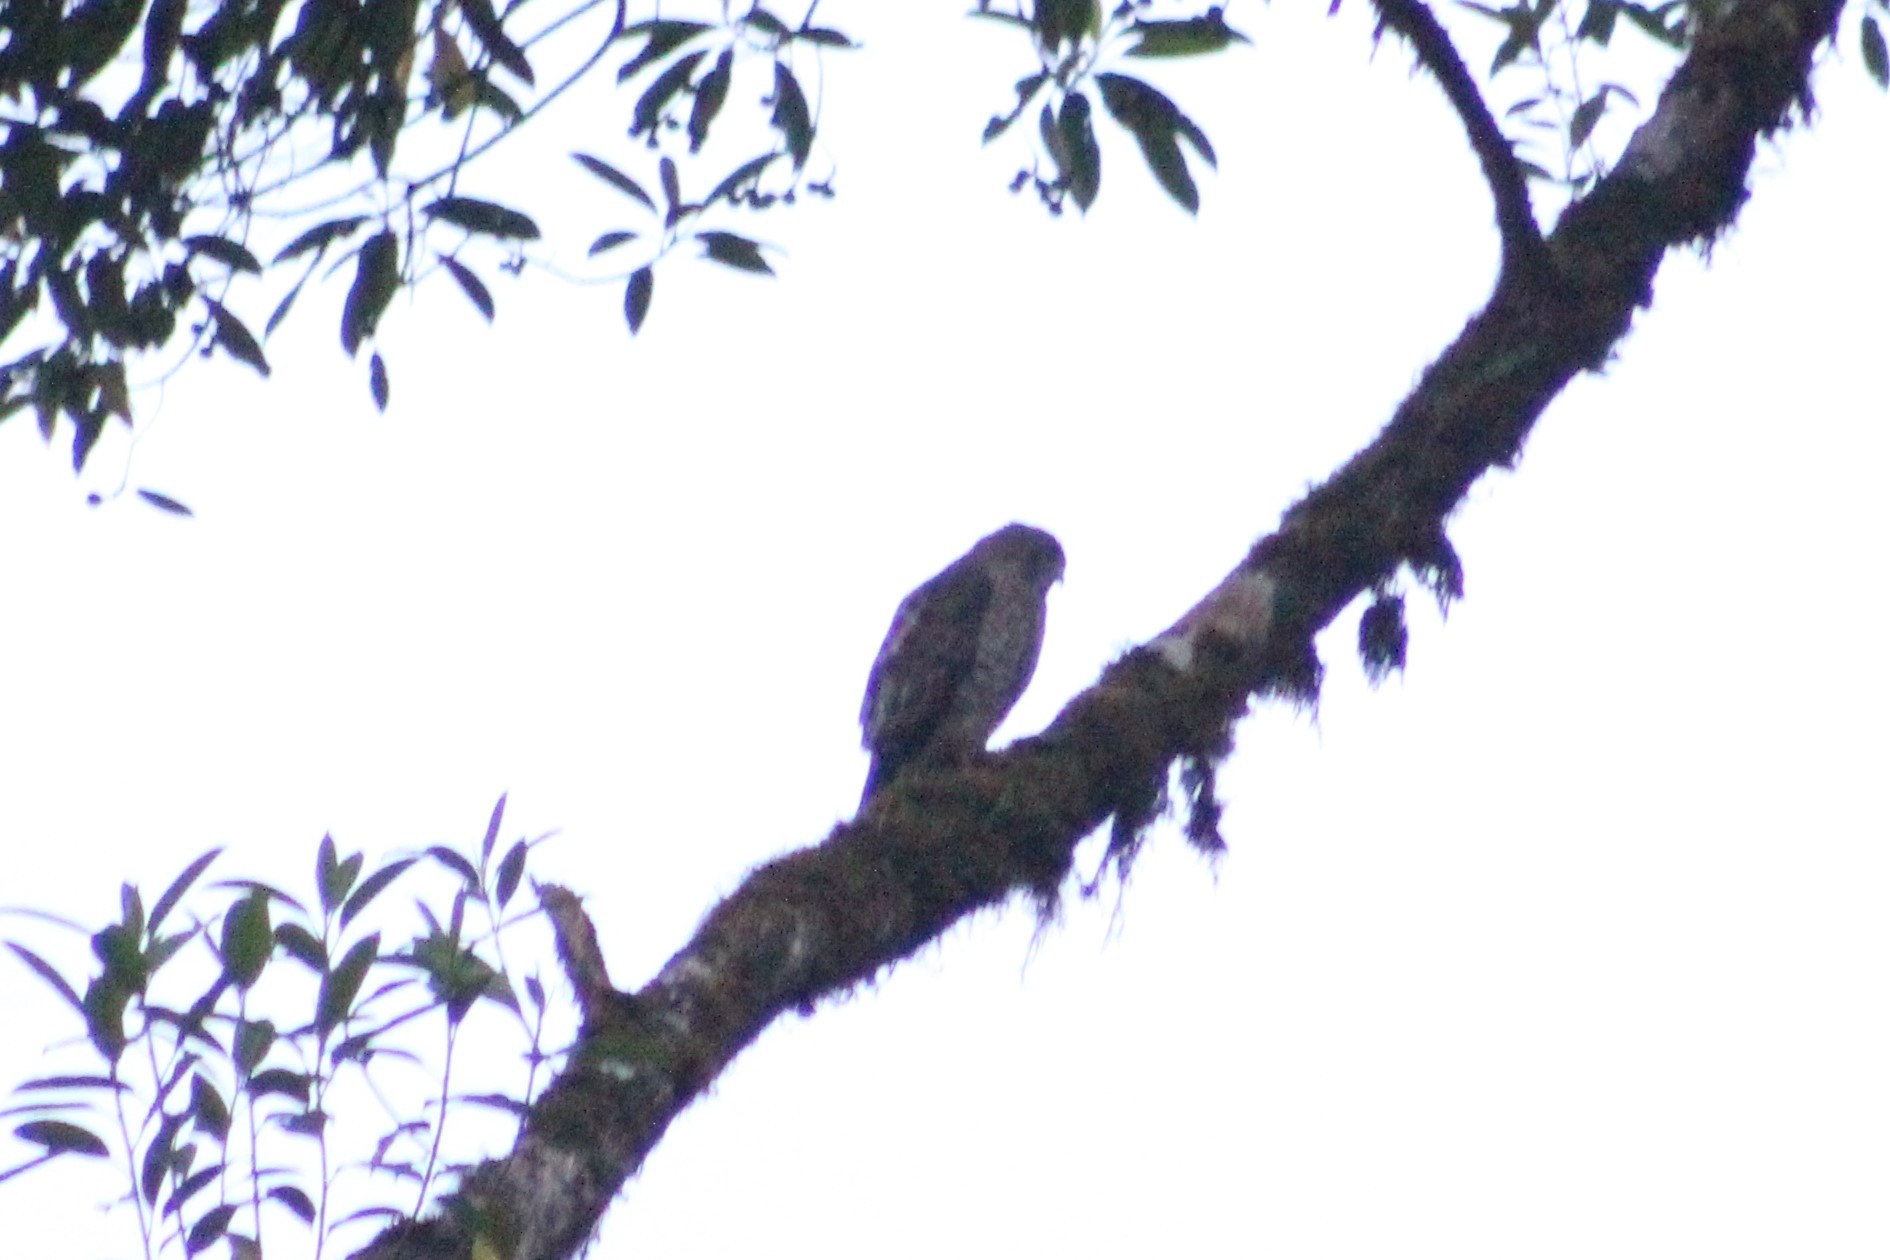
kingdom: Animalia
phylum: Chordata
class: Aves
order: Accipitriformes
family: Accipitridae
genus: Buteo
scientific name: Buteo platypterus
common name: Broad-winged hawk
